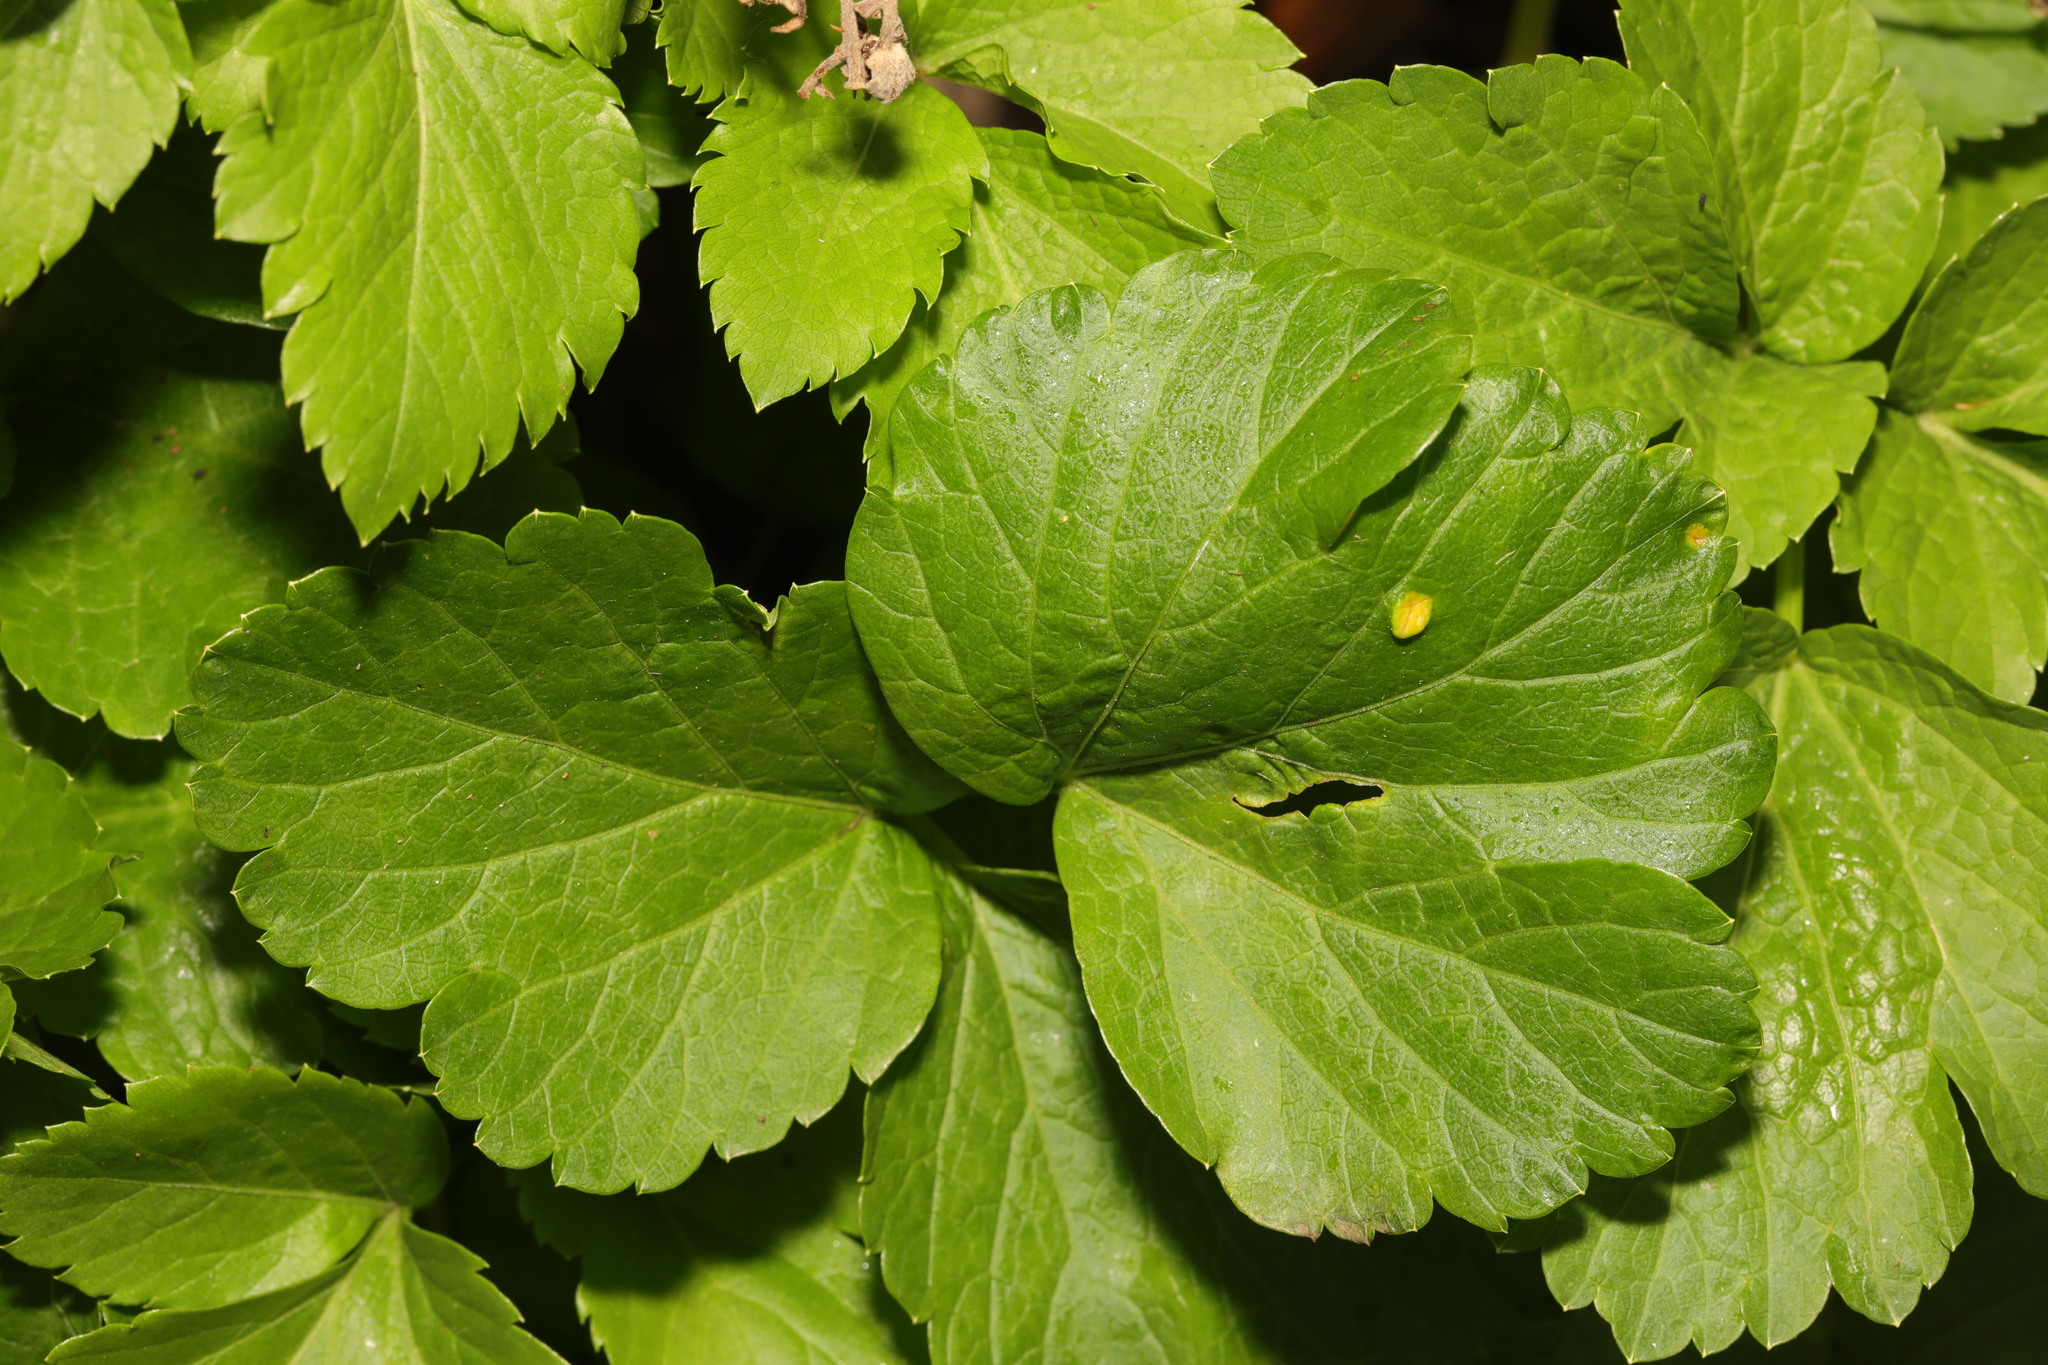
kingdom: Plantae
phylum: Tracheophyta
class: Magnoliopsida
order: Apiales
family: Apiaceae
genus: Smyrnium
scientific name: Smyrnium olusatrum
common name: Alexanders
